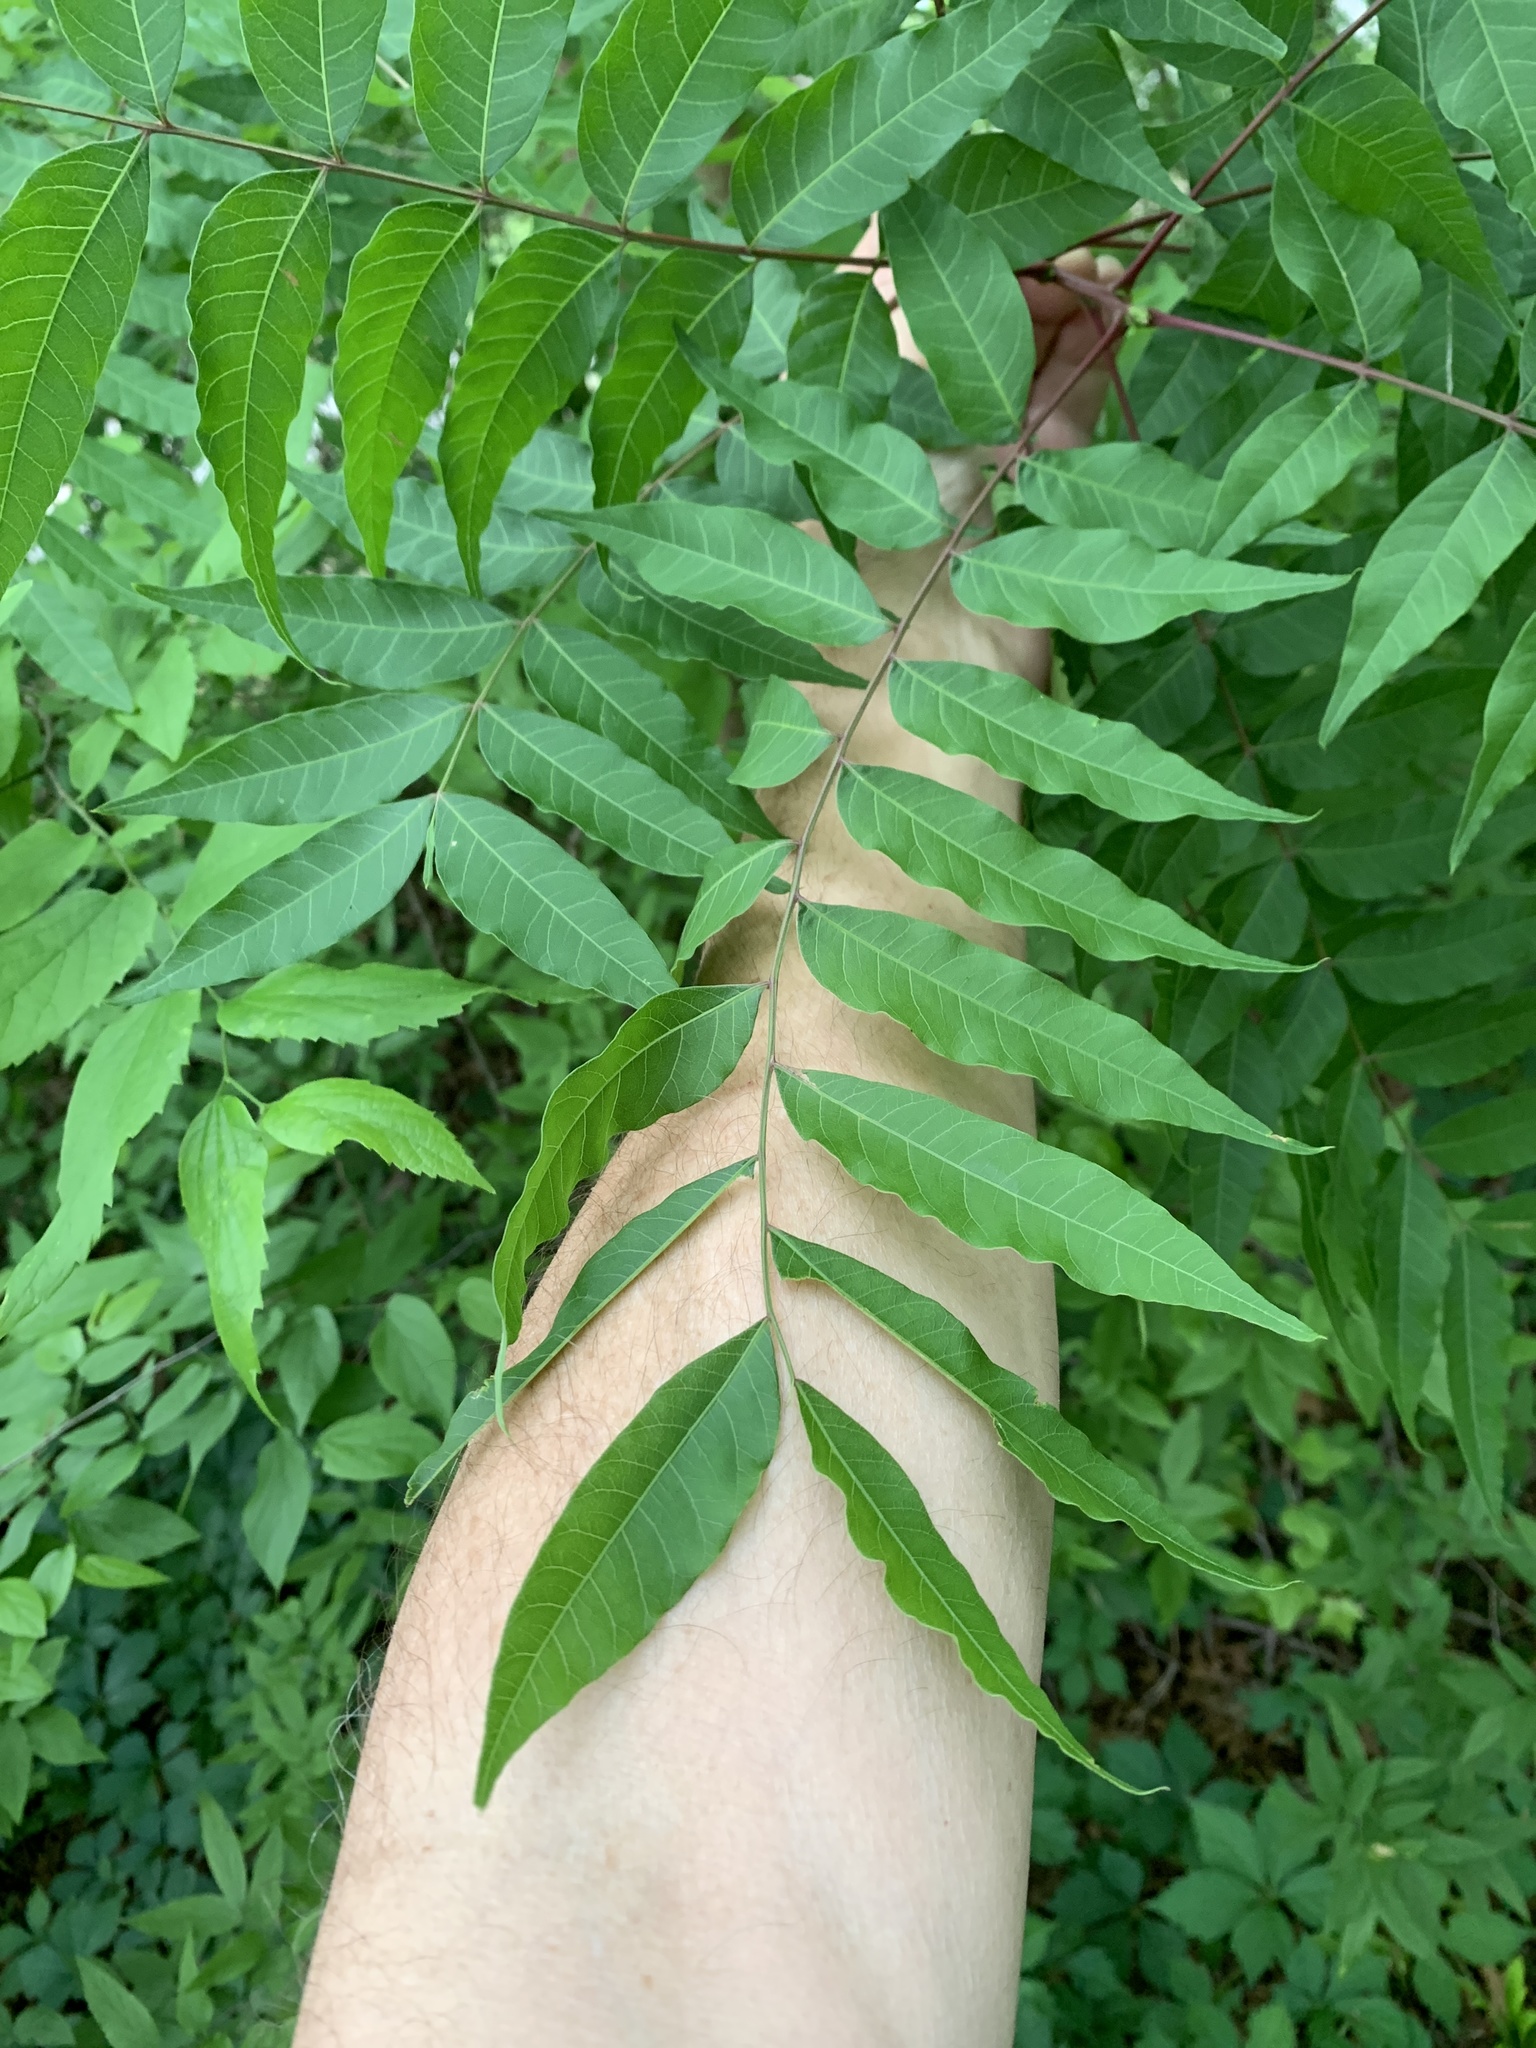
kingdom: Plantae
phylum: Tracheophyta
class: Magnoliopsida
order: Sapindales
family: Anacardiaceae
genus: Pistacia
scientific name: Pistacia chinensis
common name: Chinese pistache
